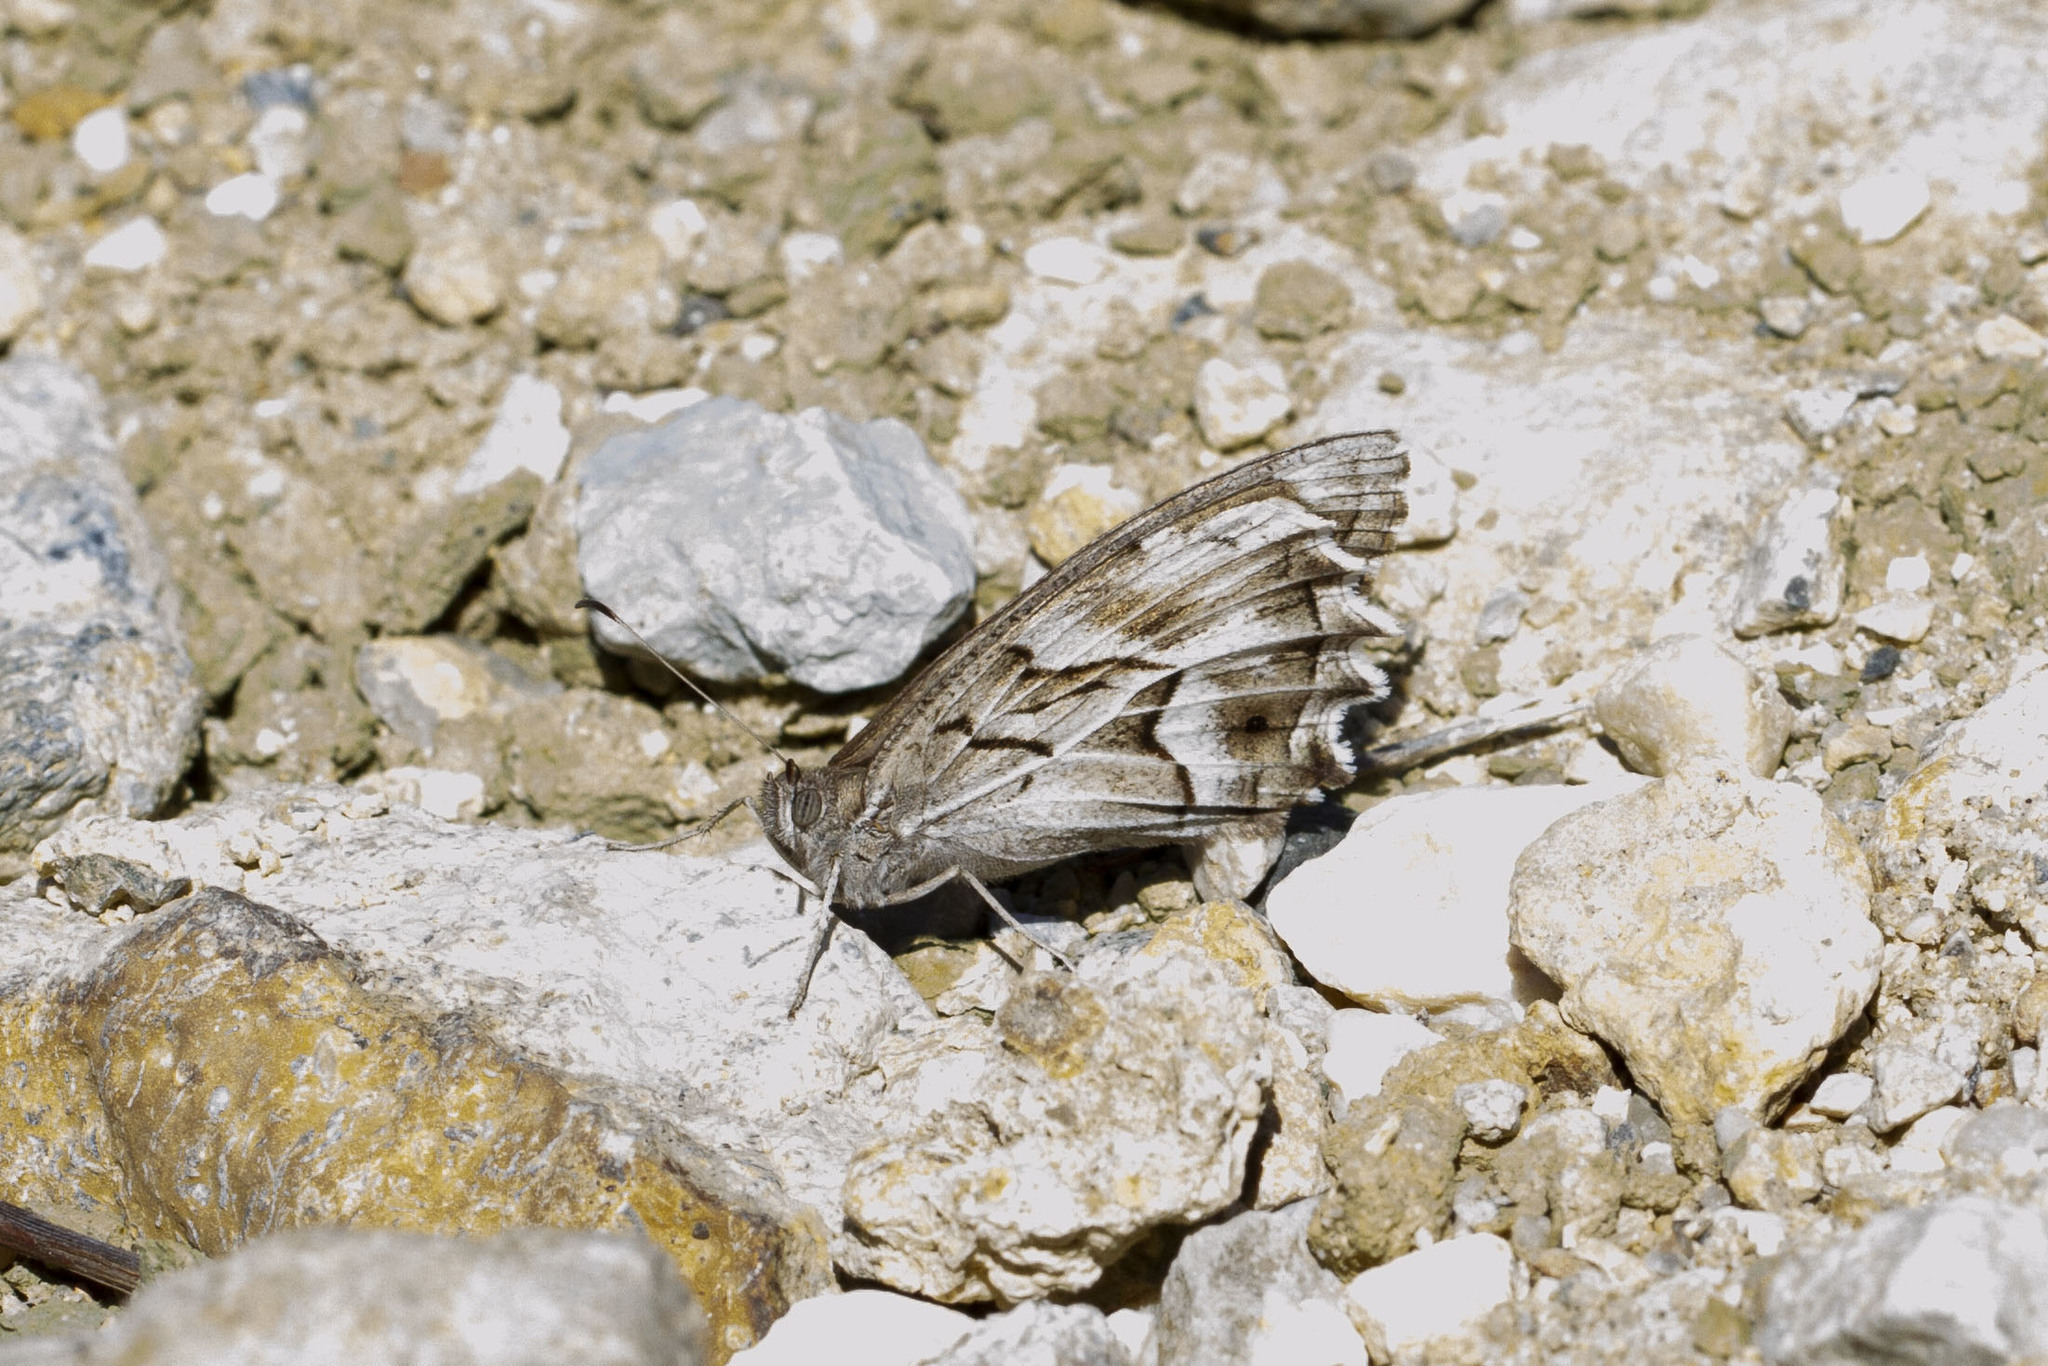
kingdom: Animalia
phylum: Arthropoda
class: Insecta
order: Lepidoptera
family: Nymphalidae
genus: Hipparchia
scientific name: Hipparchia fidia
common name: Striped grayling
